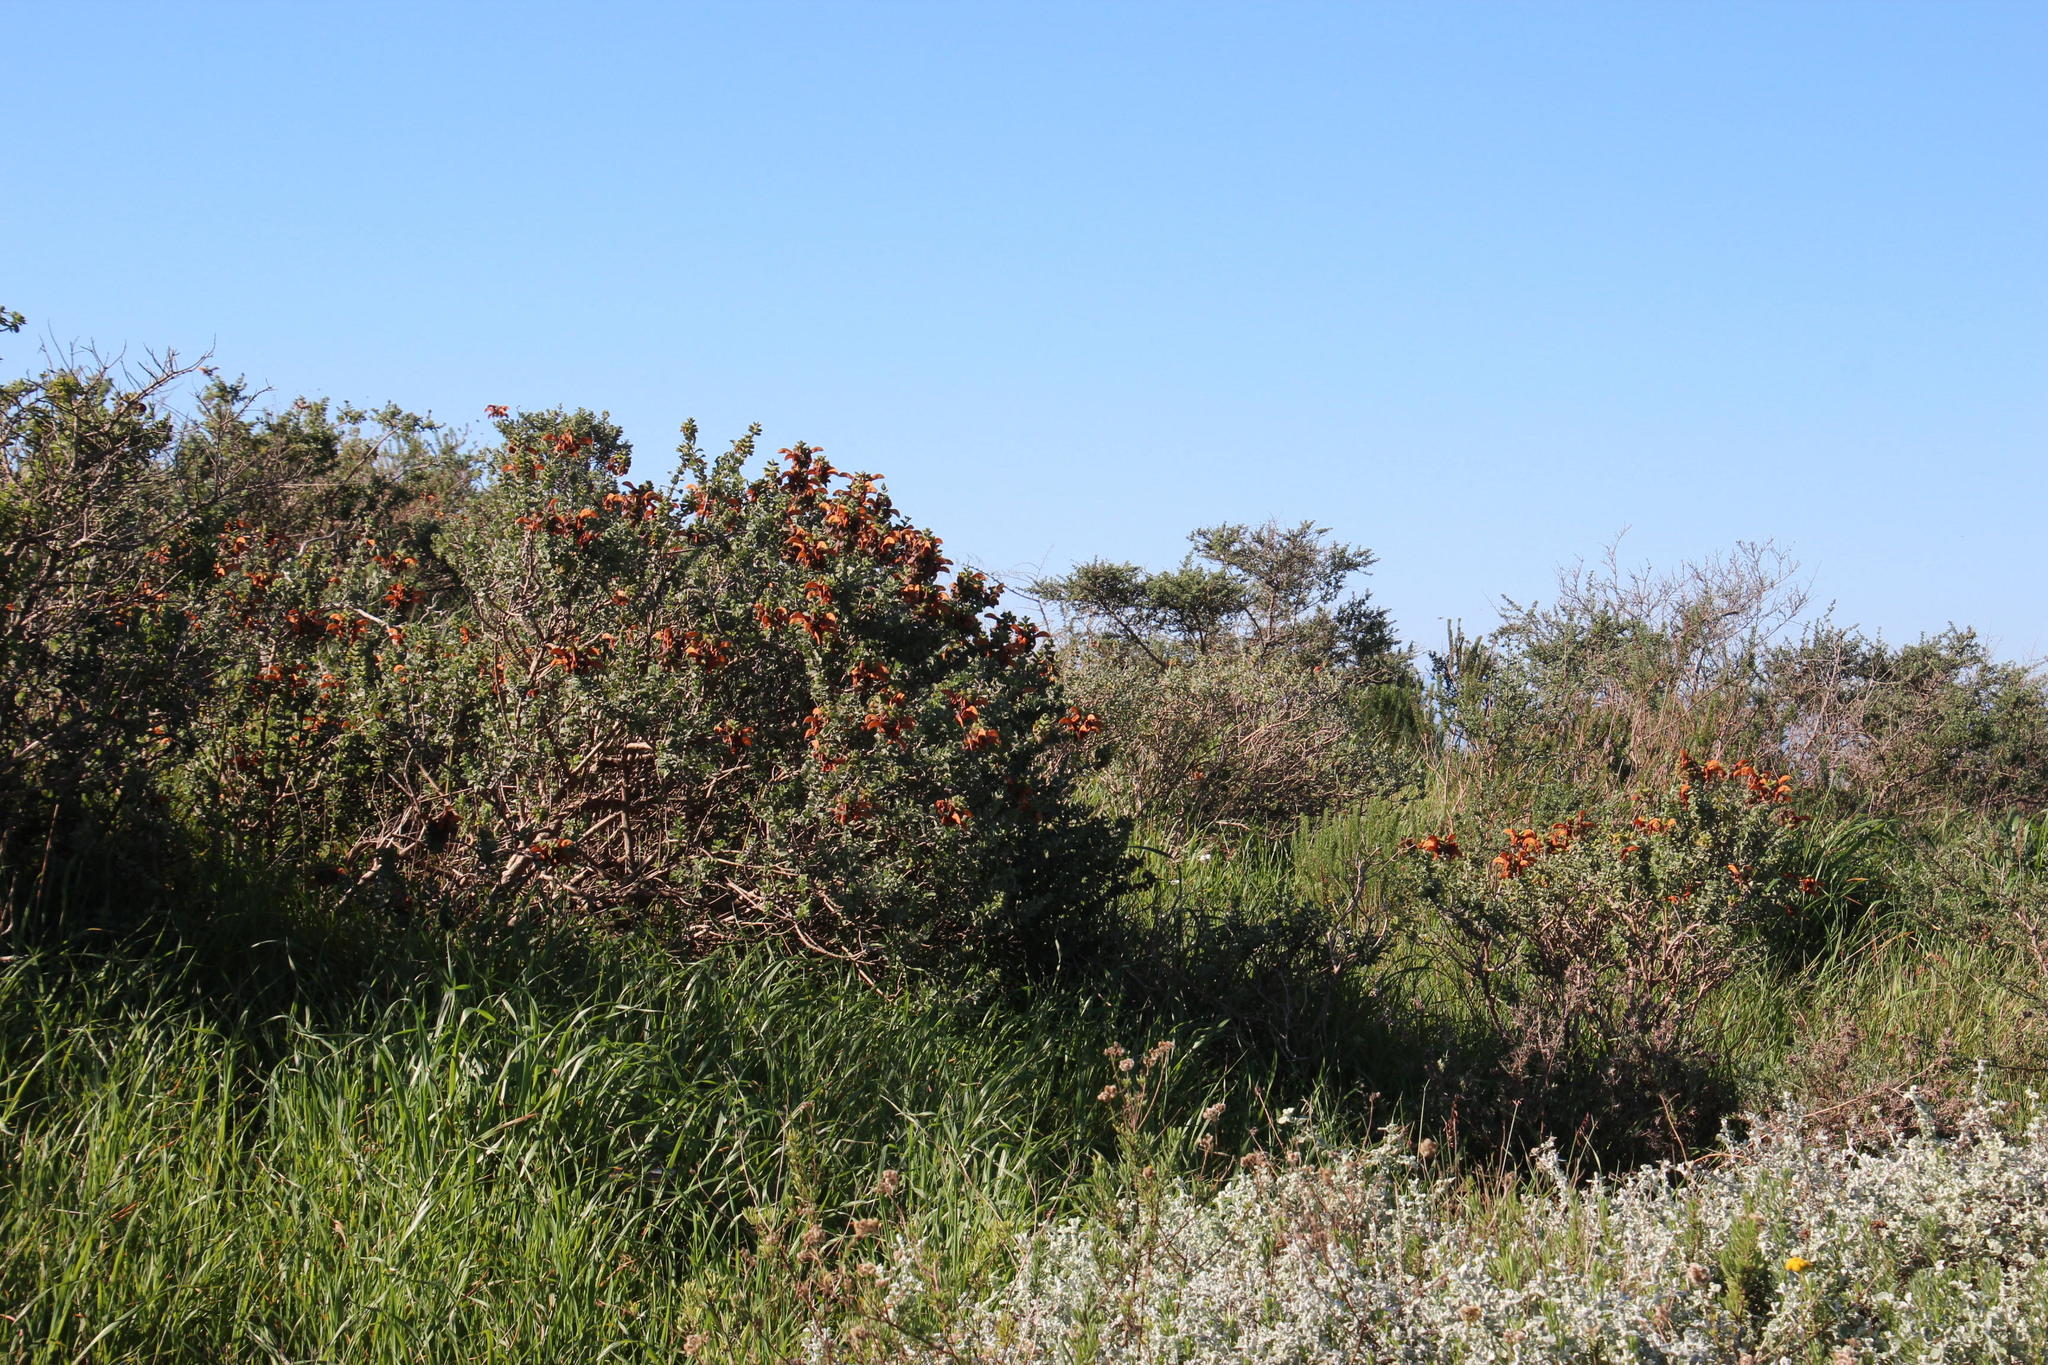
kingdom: Plantae
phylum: Tracheophyta
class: Magnoliopsida
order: Lamiales
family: Lamiaceae
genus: Salvia
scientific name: Salvia aurea
